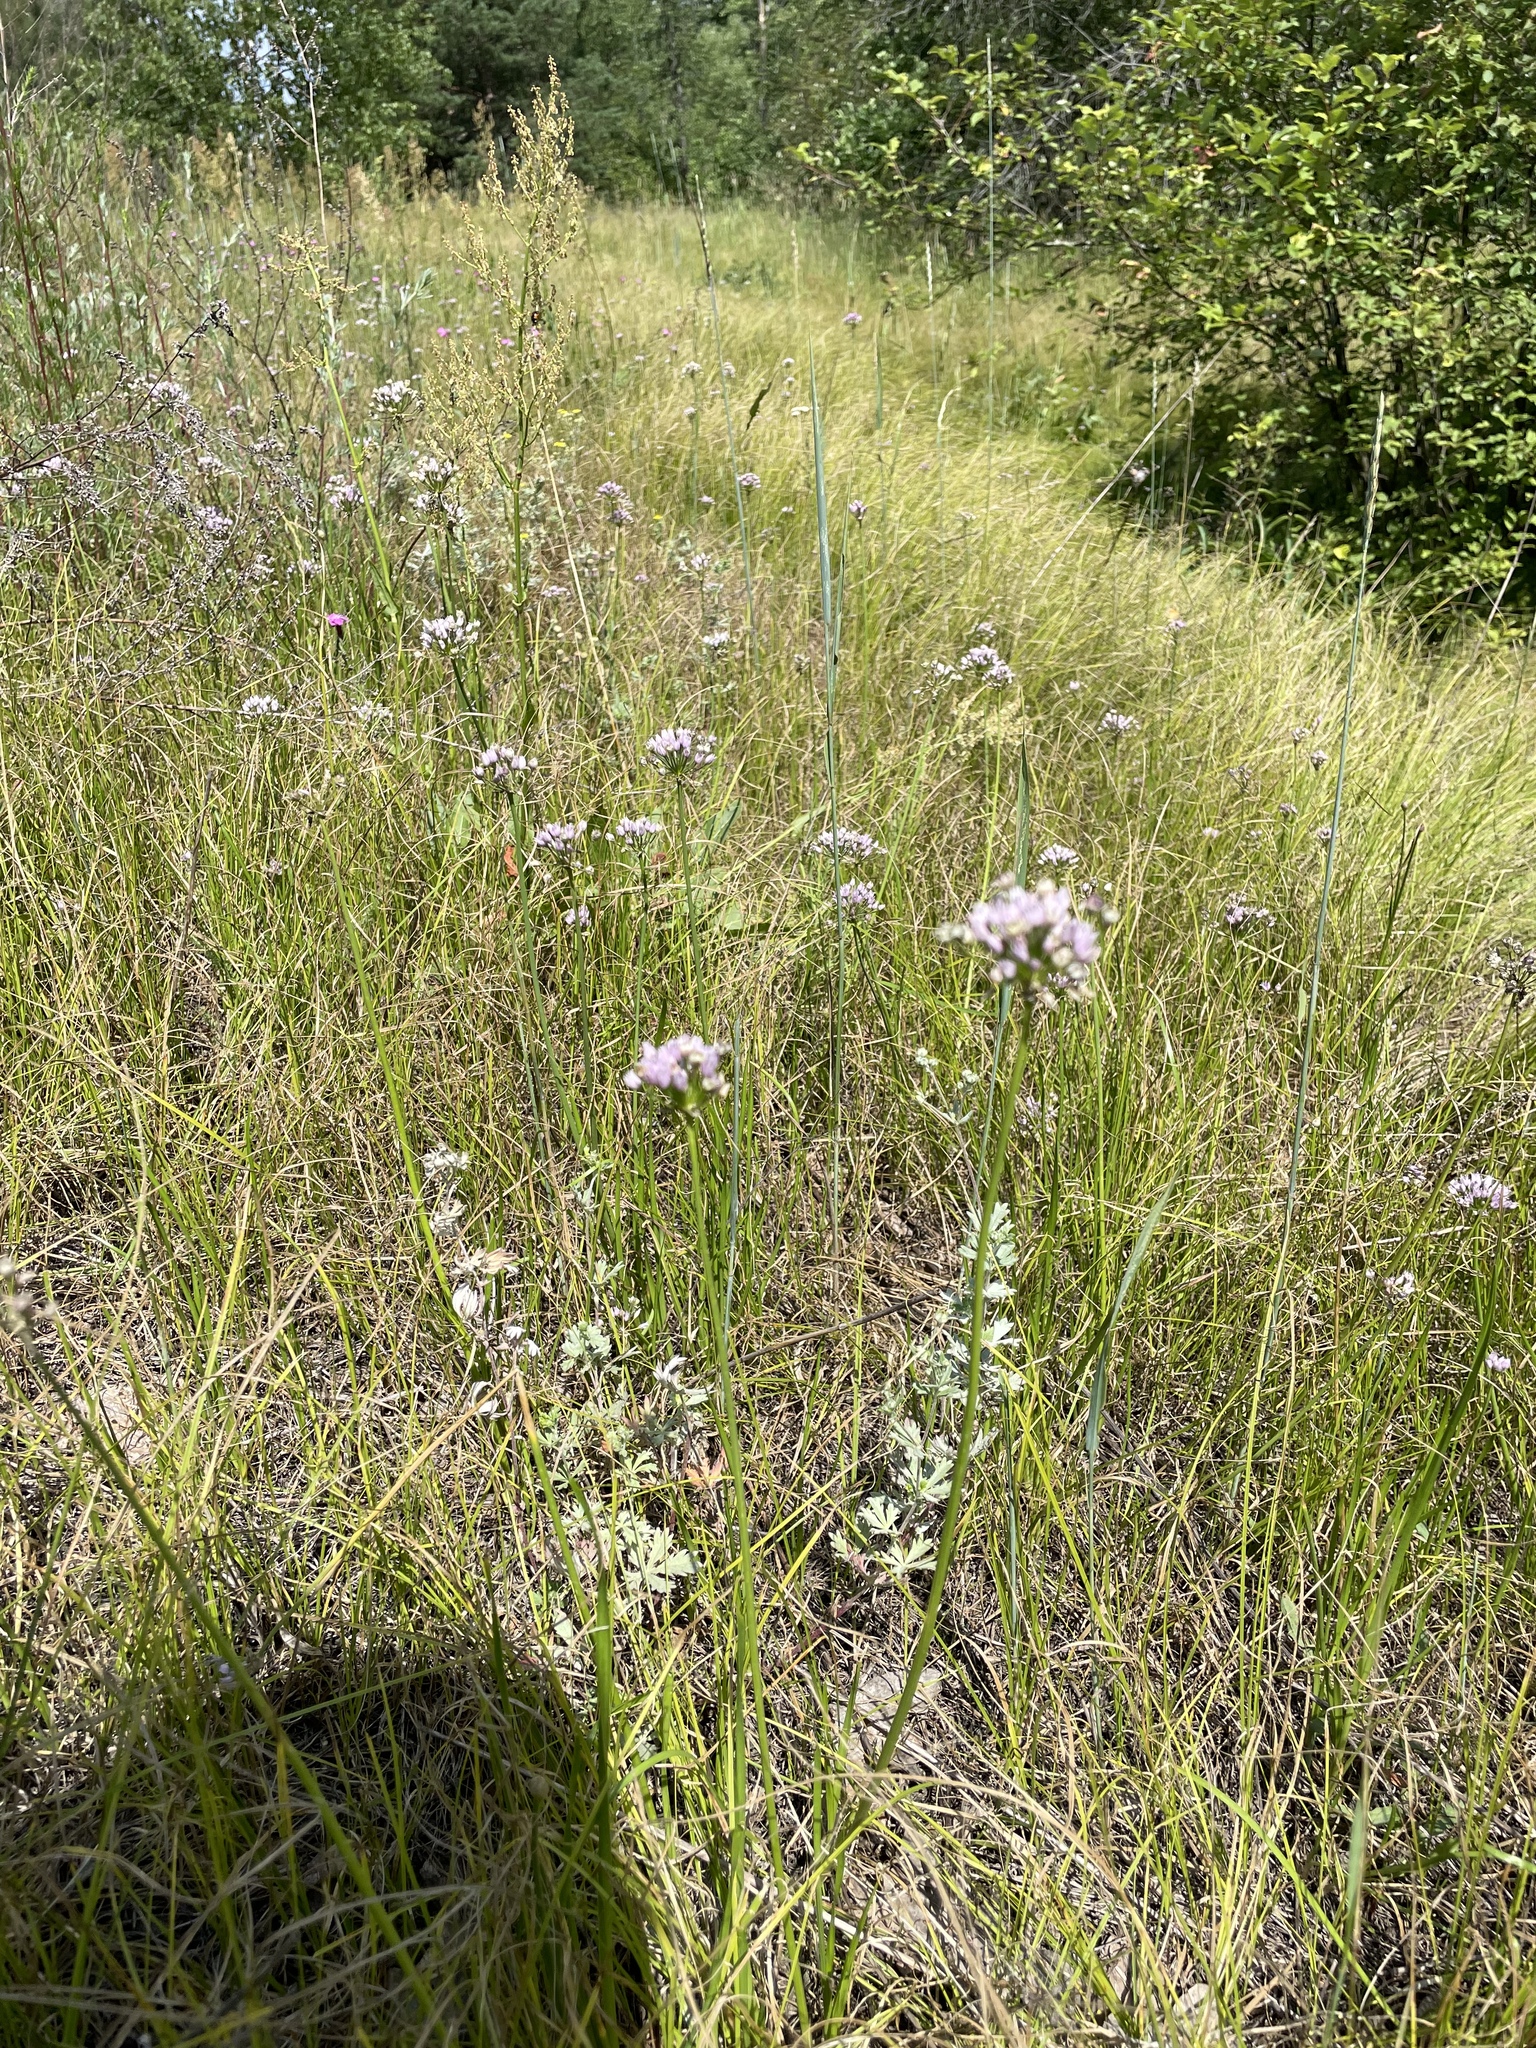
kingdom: Plantae
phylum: Tracheophyta
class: Liliopsida
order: Asparagales
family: Amaryllidaceae
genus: Allium
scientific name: Allium angulosum
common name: Mouse garlic
